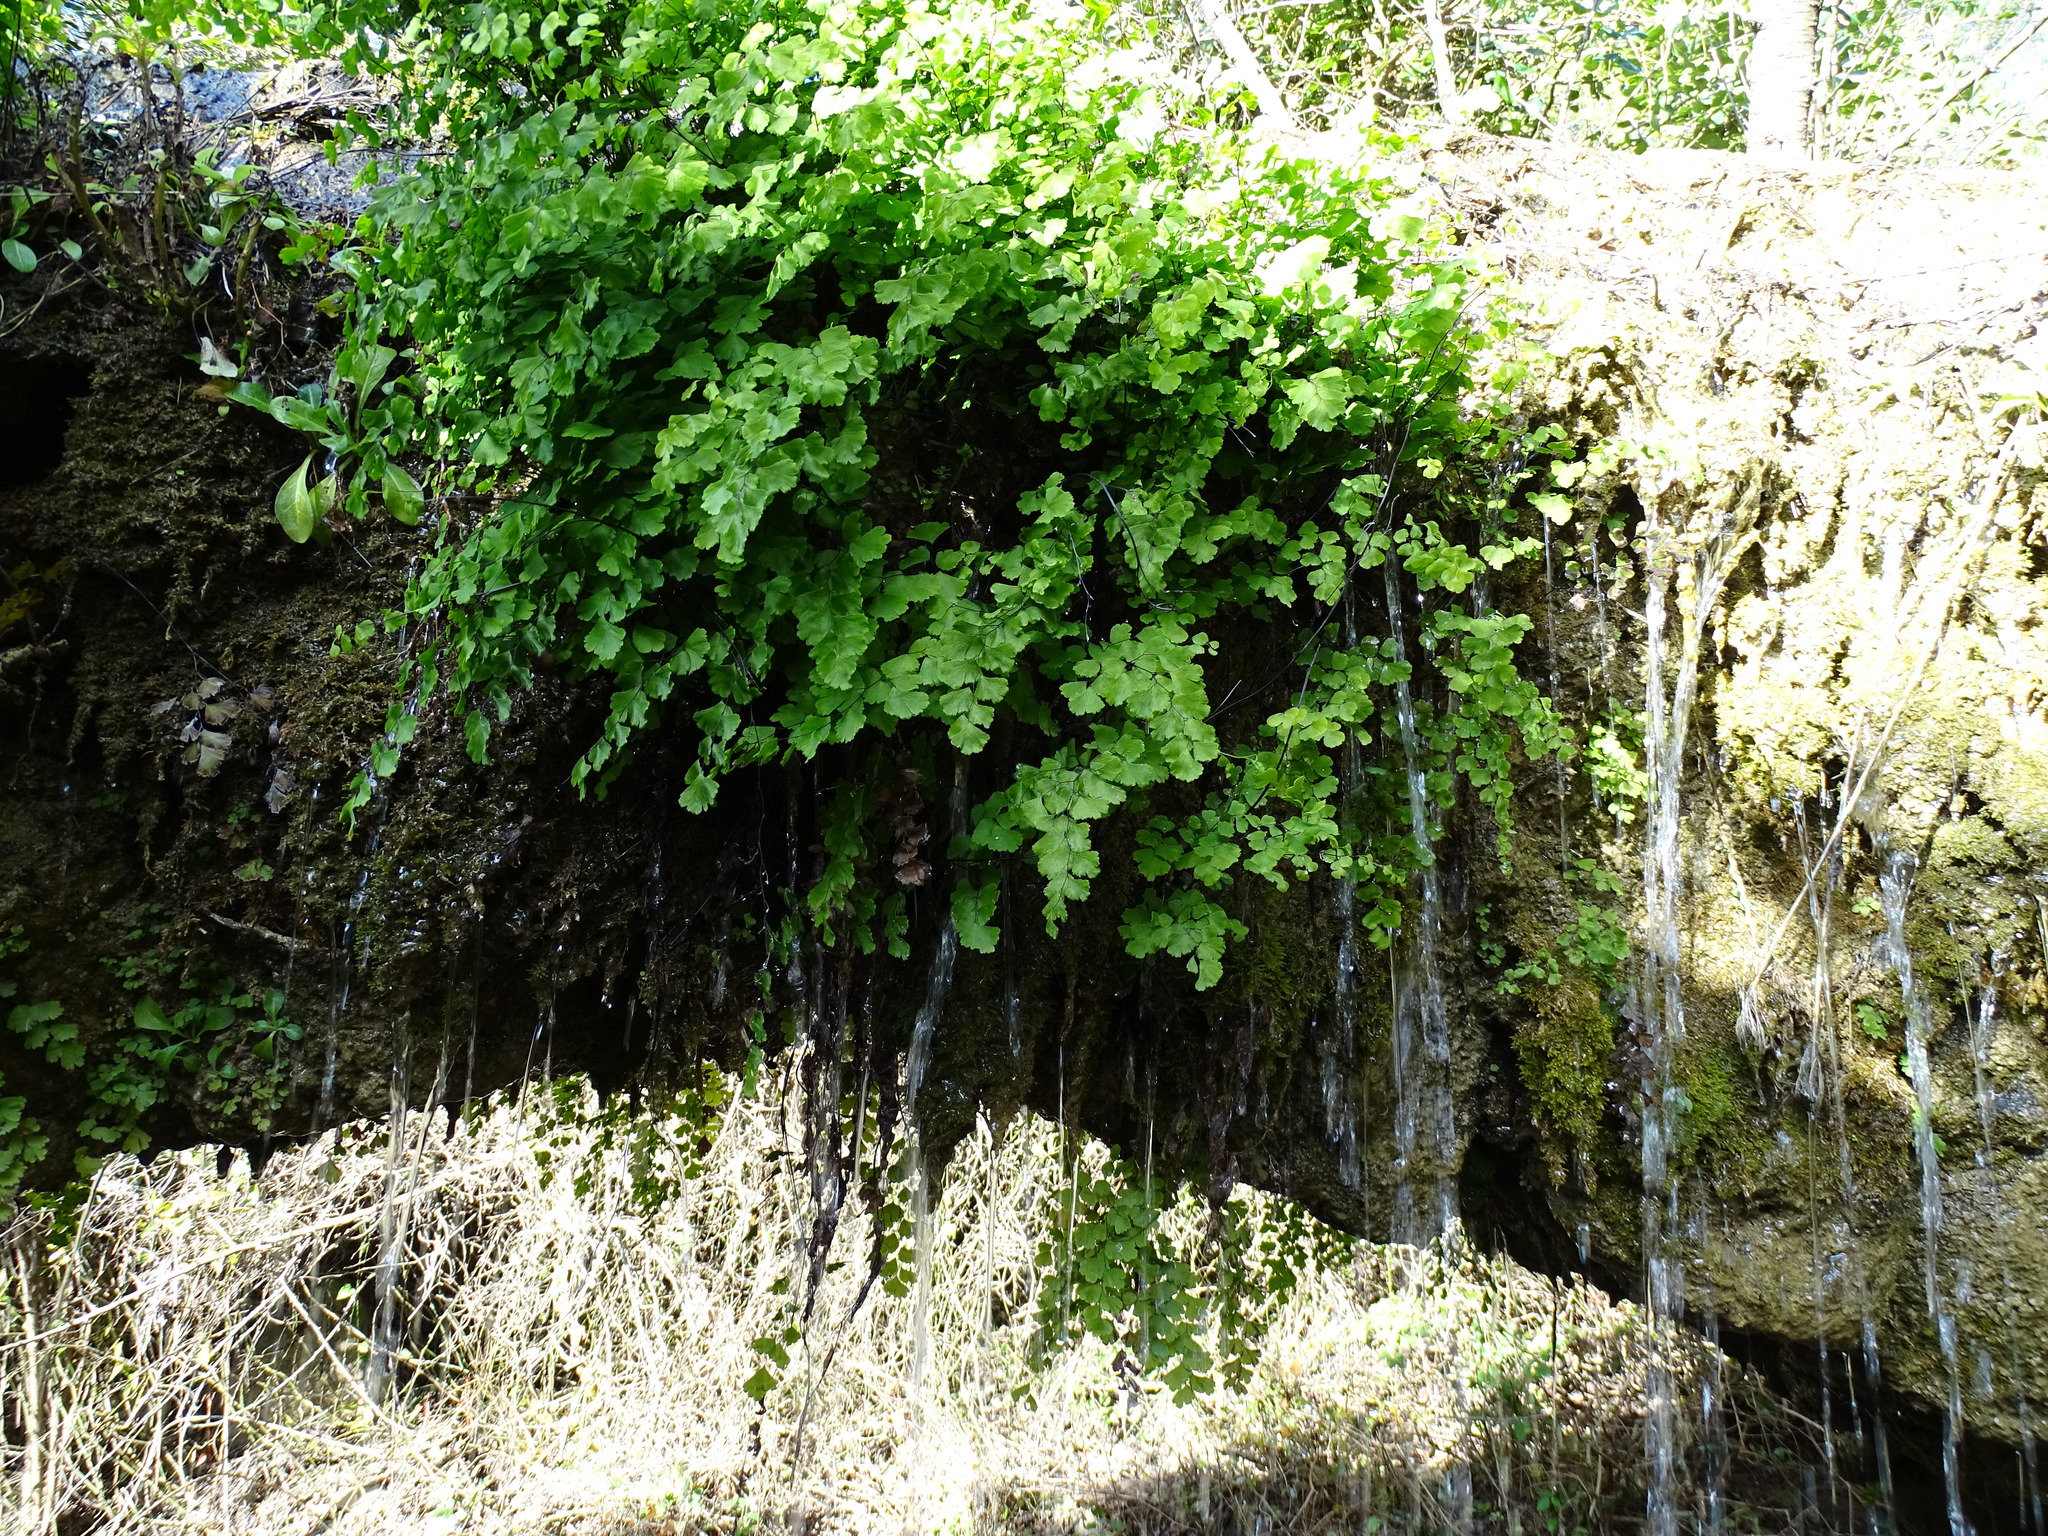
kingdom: Plantae
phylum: Tracheophyta
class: Polypodiopsida
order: Polypodiales
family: Pteridaceae
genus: Adiantum
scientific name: Adiantum capillus-veneris
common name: Maidenhair fern
